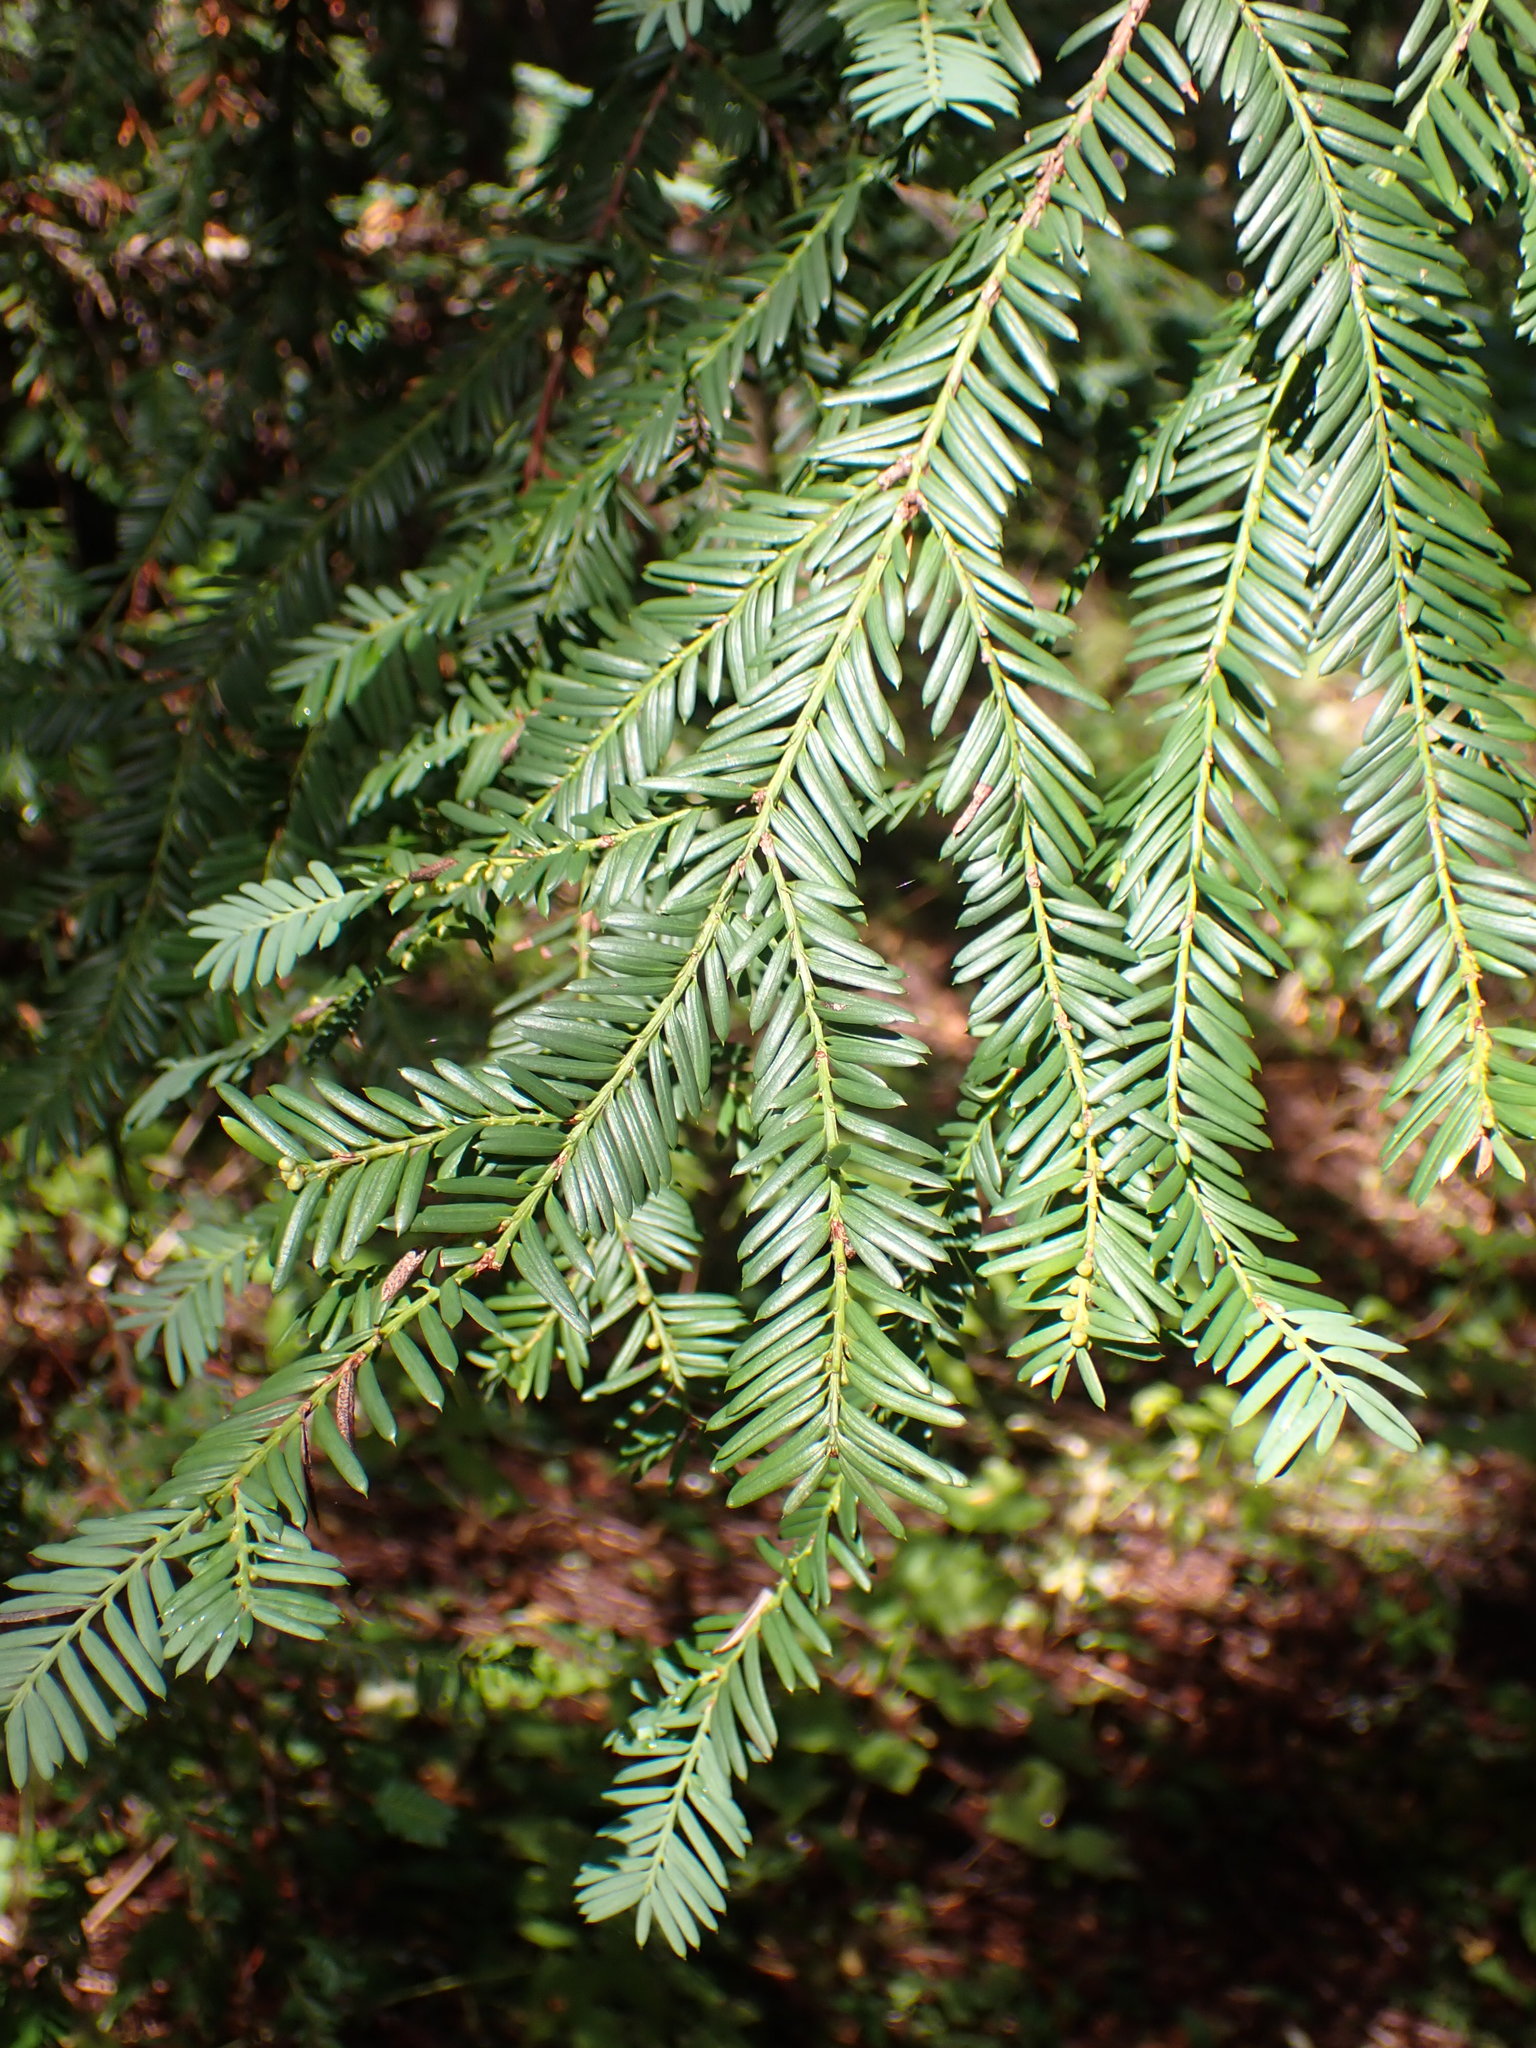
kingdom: Plantae
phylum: Tracheophyta
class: Pinopsida
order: Pinales
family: Taxaceae
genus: Taxus
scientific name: Taxus brevifolia
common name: Pacific yew
